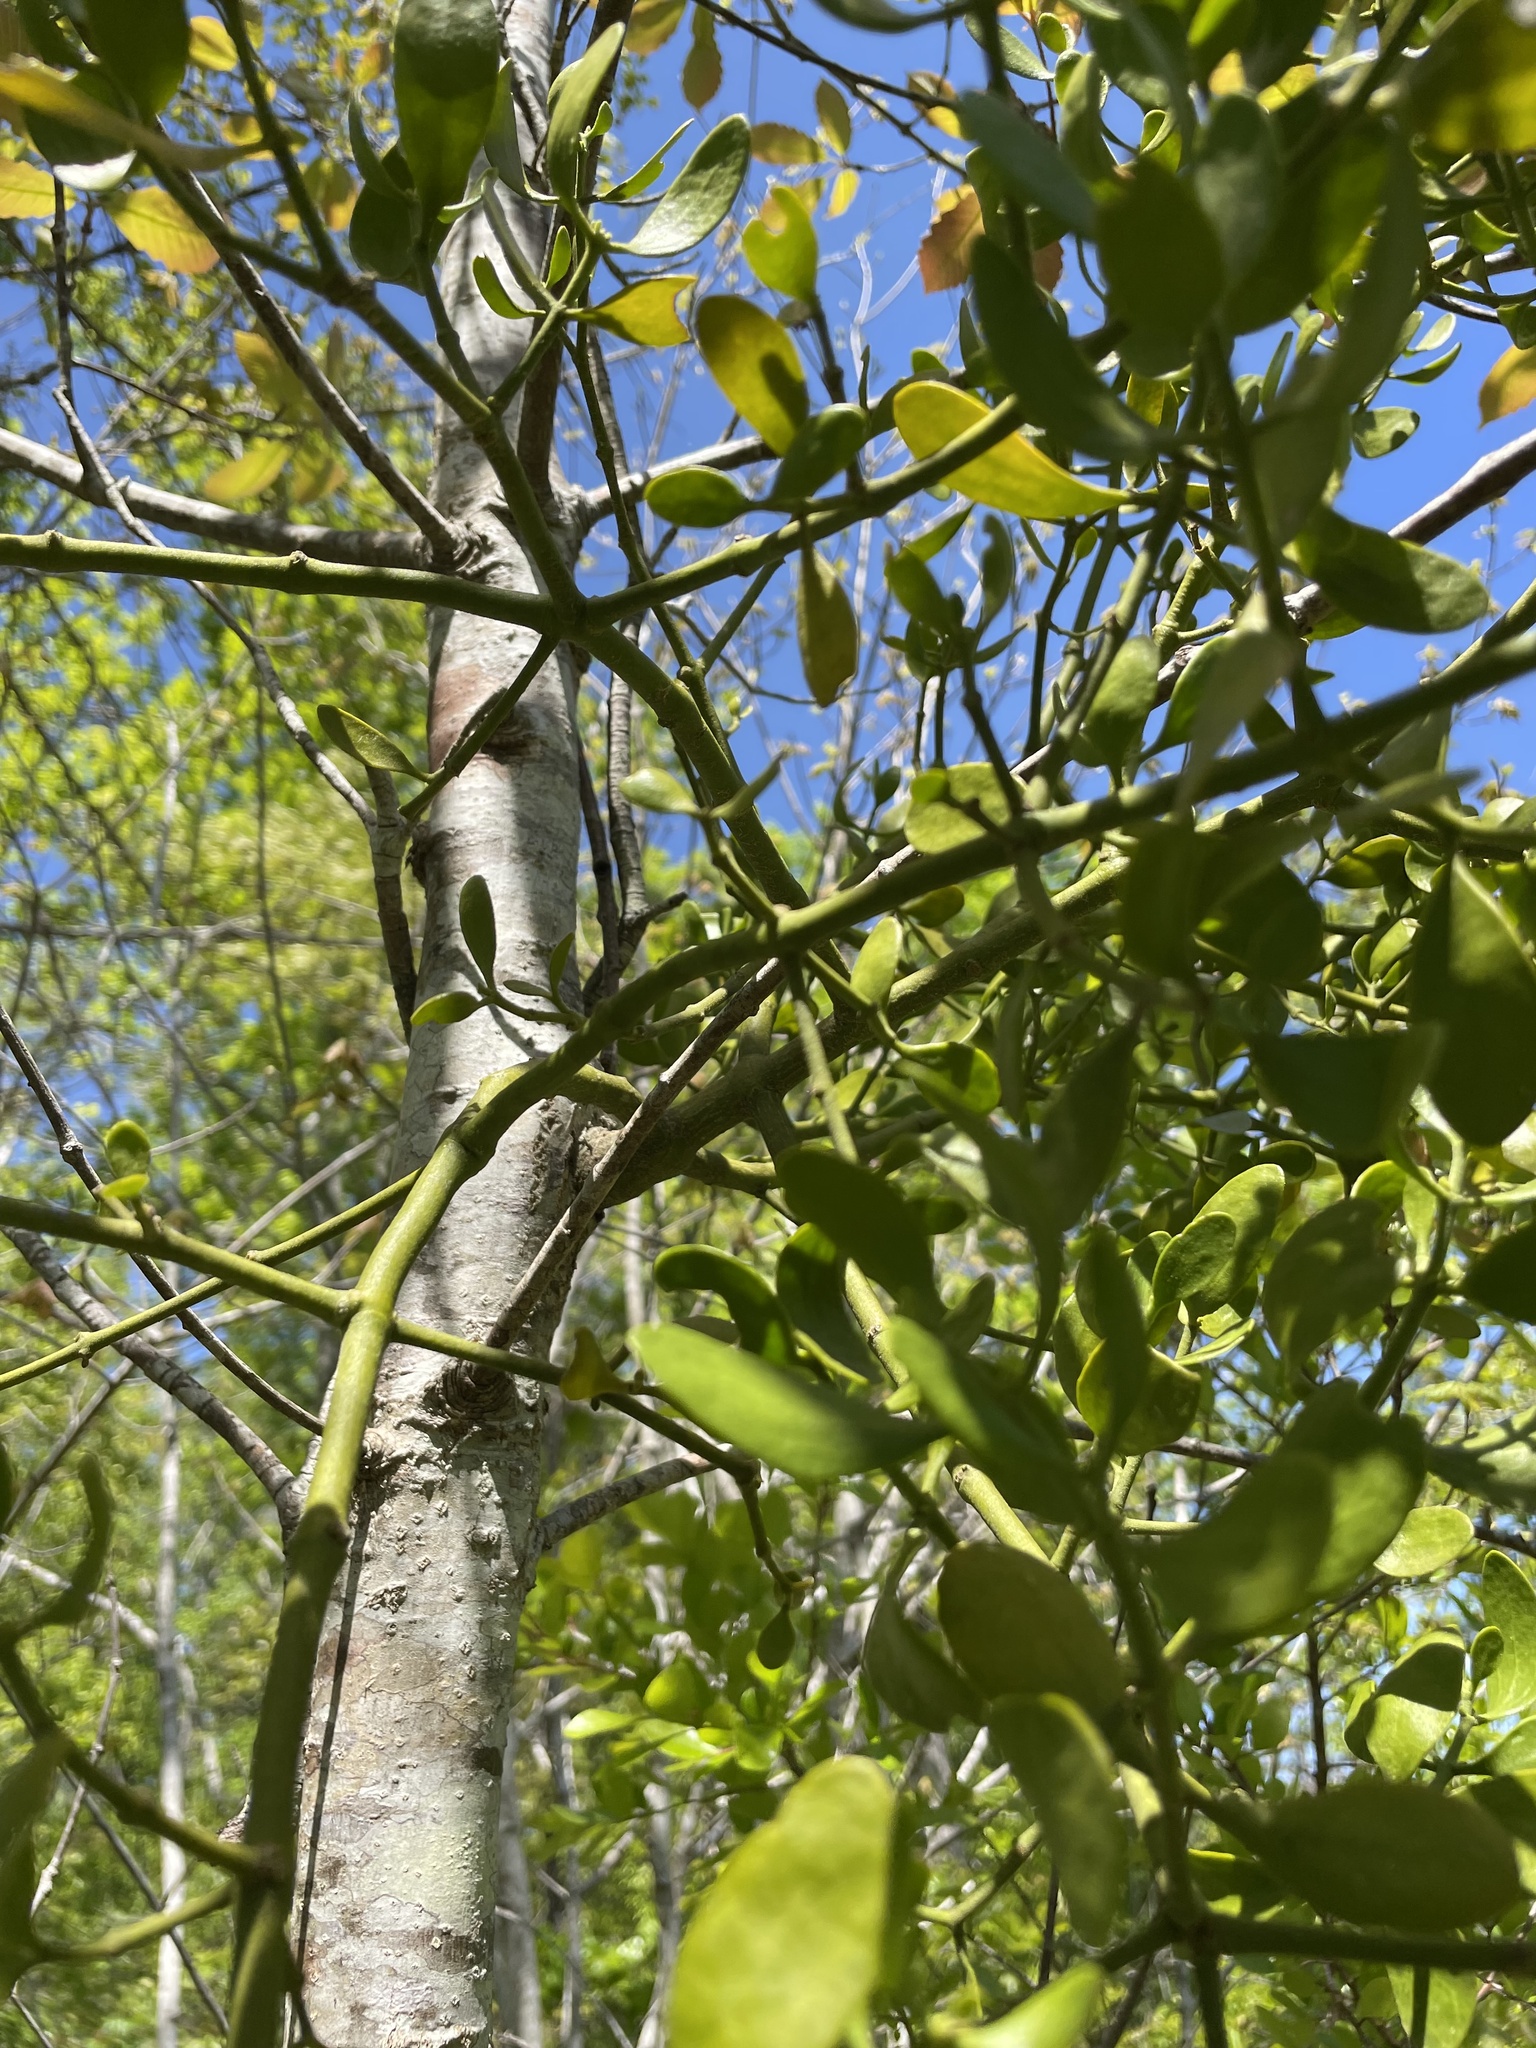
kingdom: Plantae
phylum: Tracheophyta
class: Magnoliopsida
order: Santalales
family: Viscaceae
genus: Phoradendron
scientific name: Phoradendron leucarpum
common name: Pacific mistletoe
